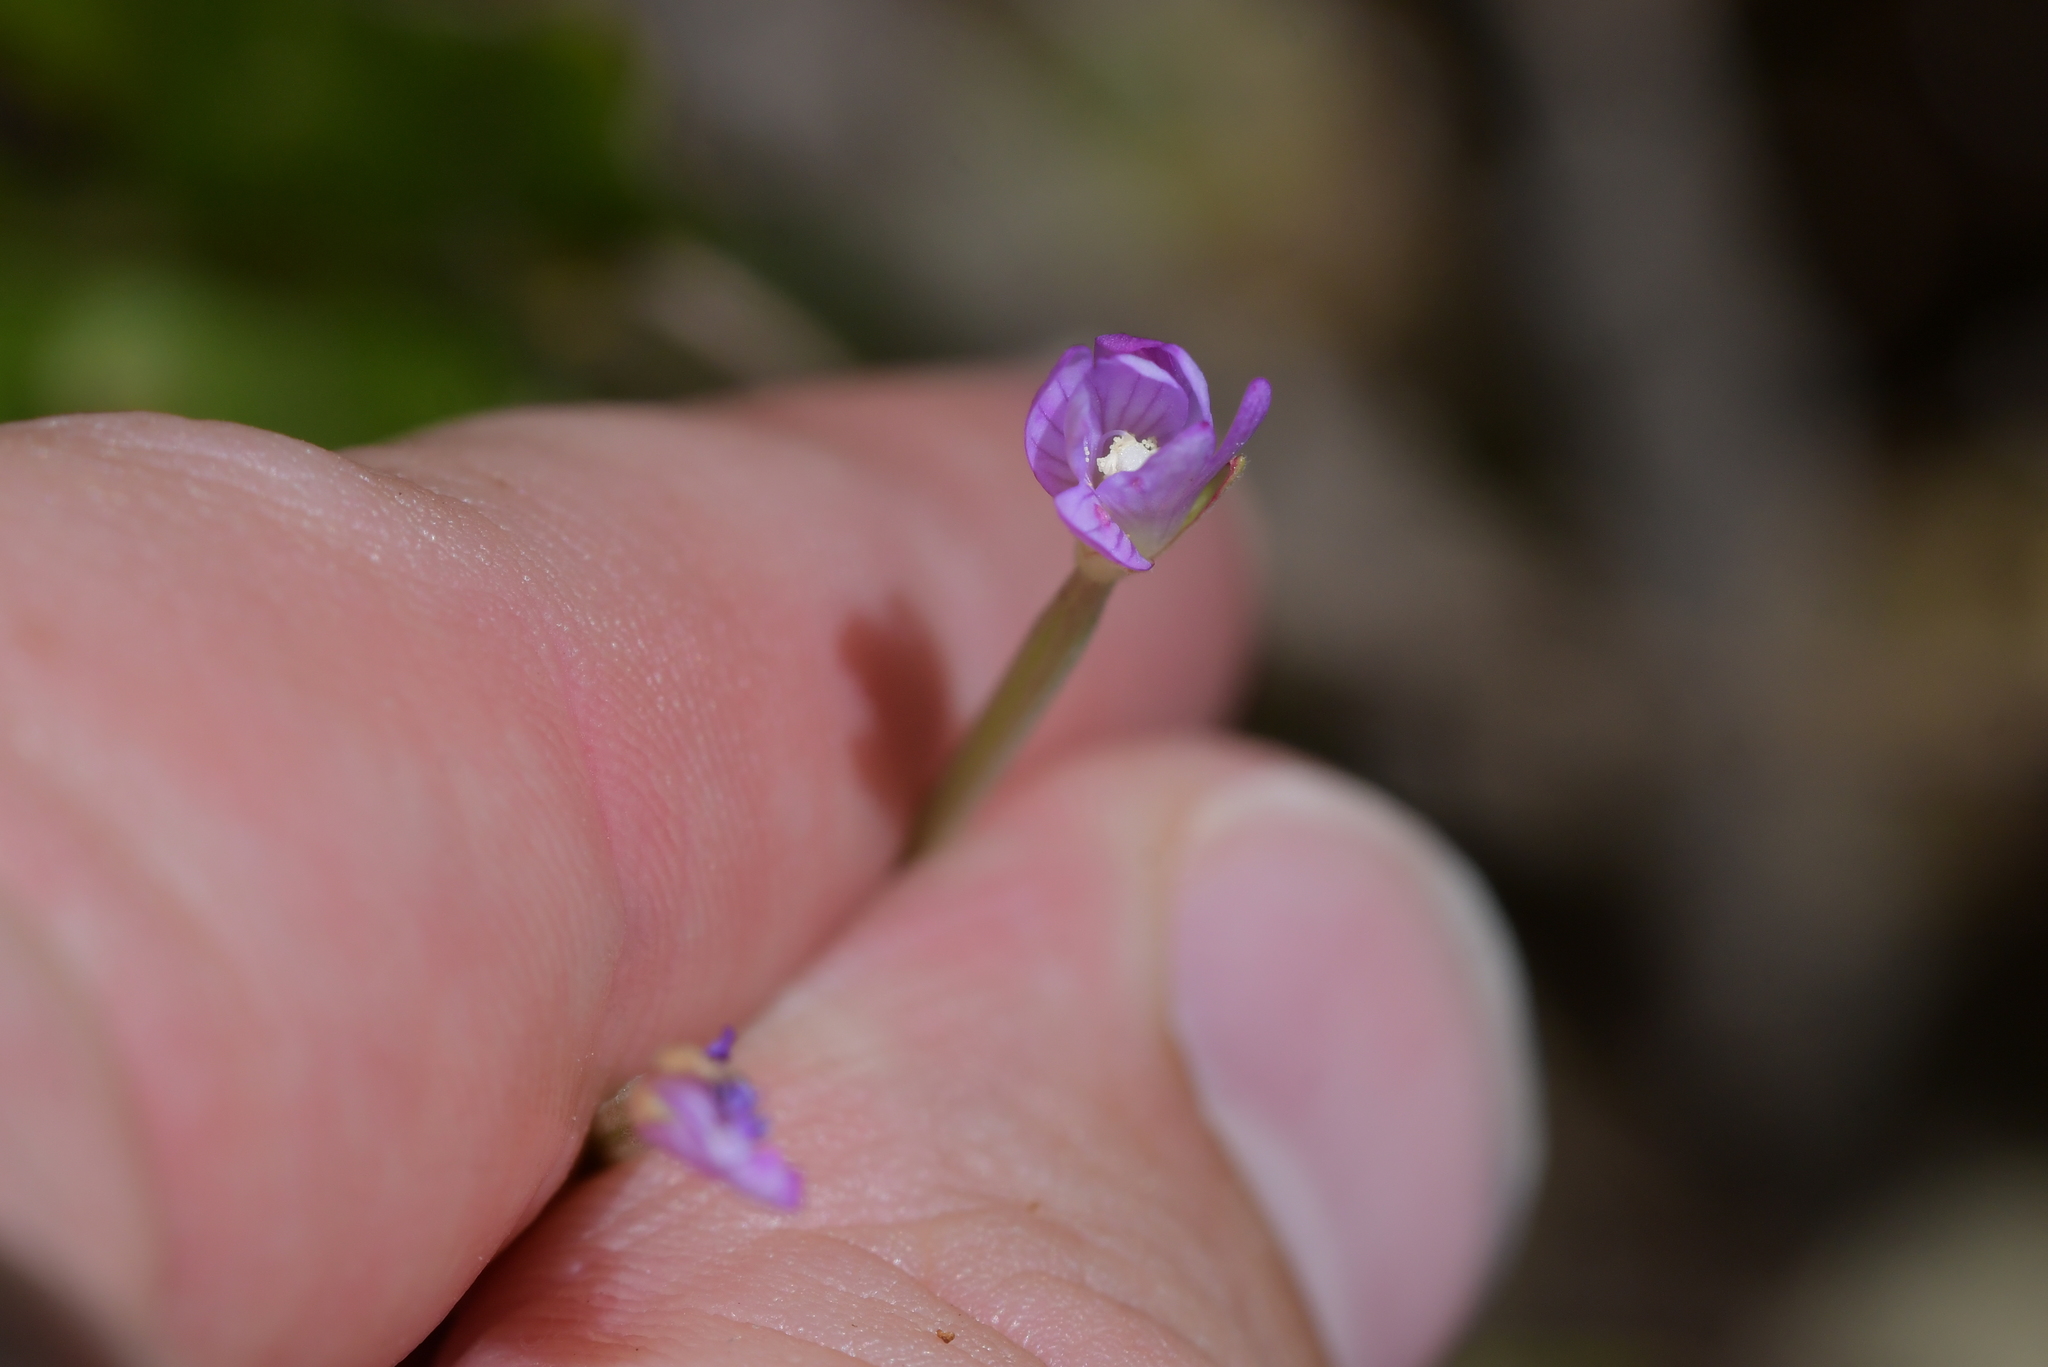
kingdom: Plantae
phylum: Tracheophyta
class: Magnoliopsida
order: Myrtales
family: Onagraceae
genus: Epilobium
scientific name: Epilobium ciliatum
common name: American willowherb
